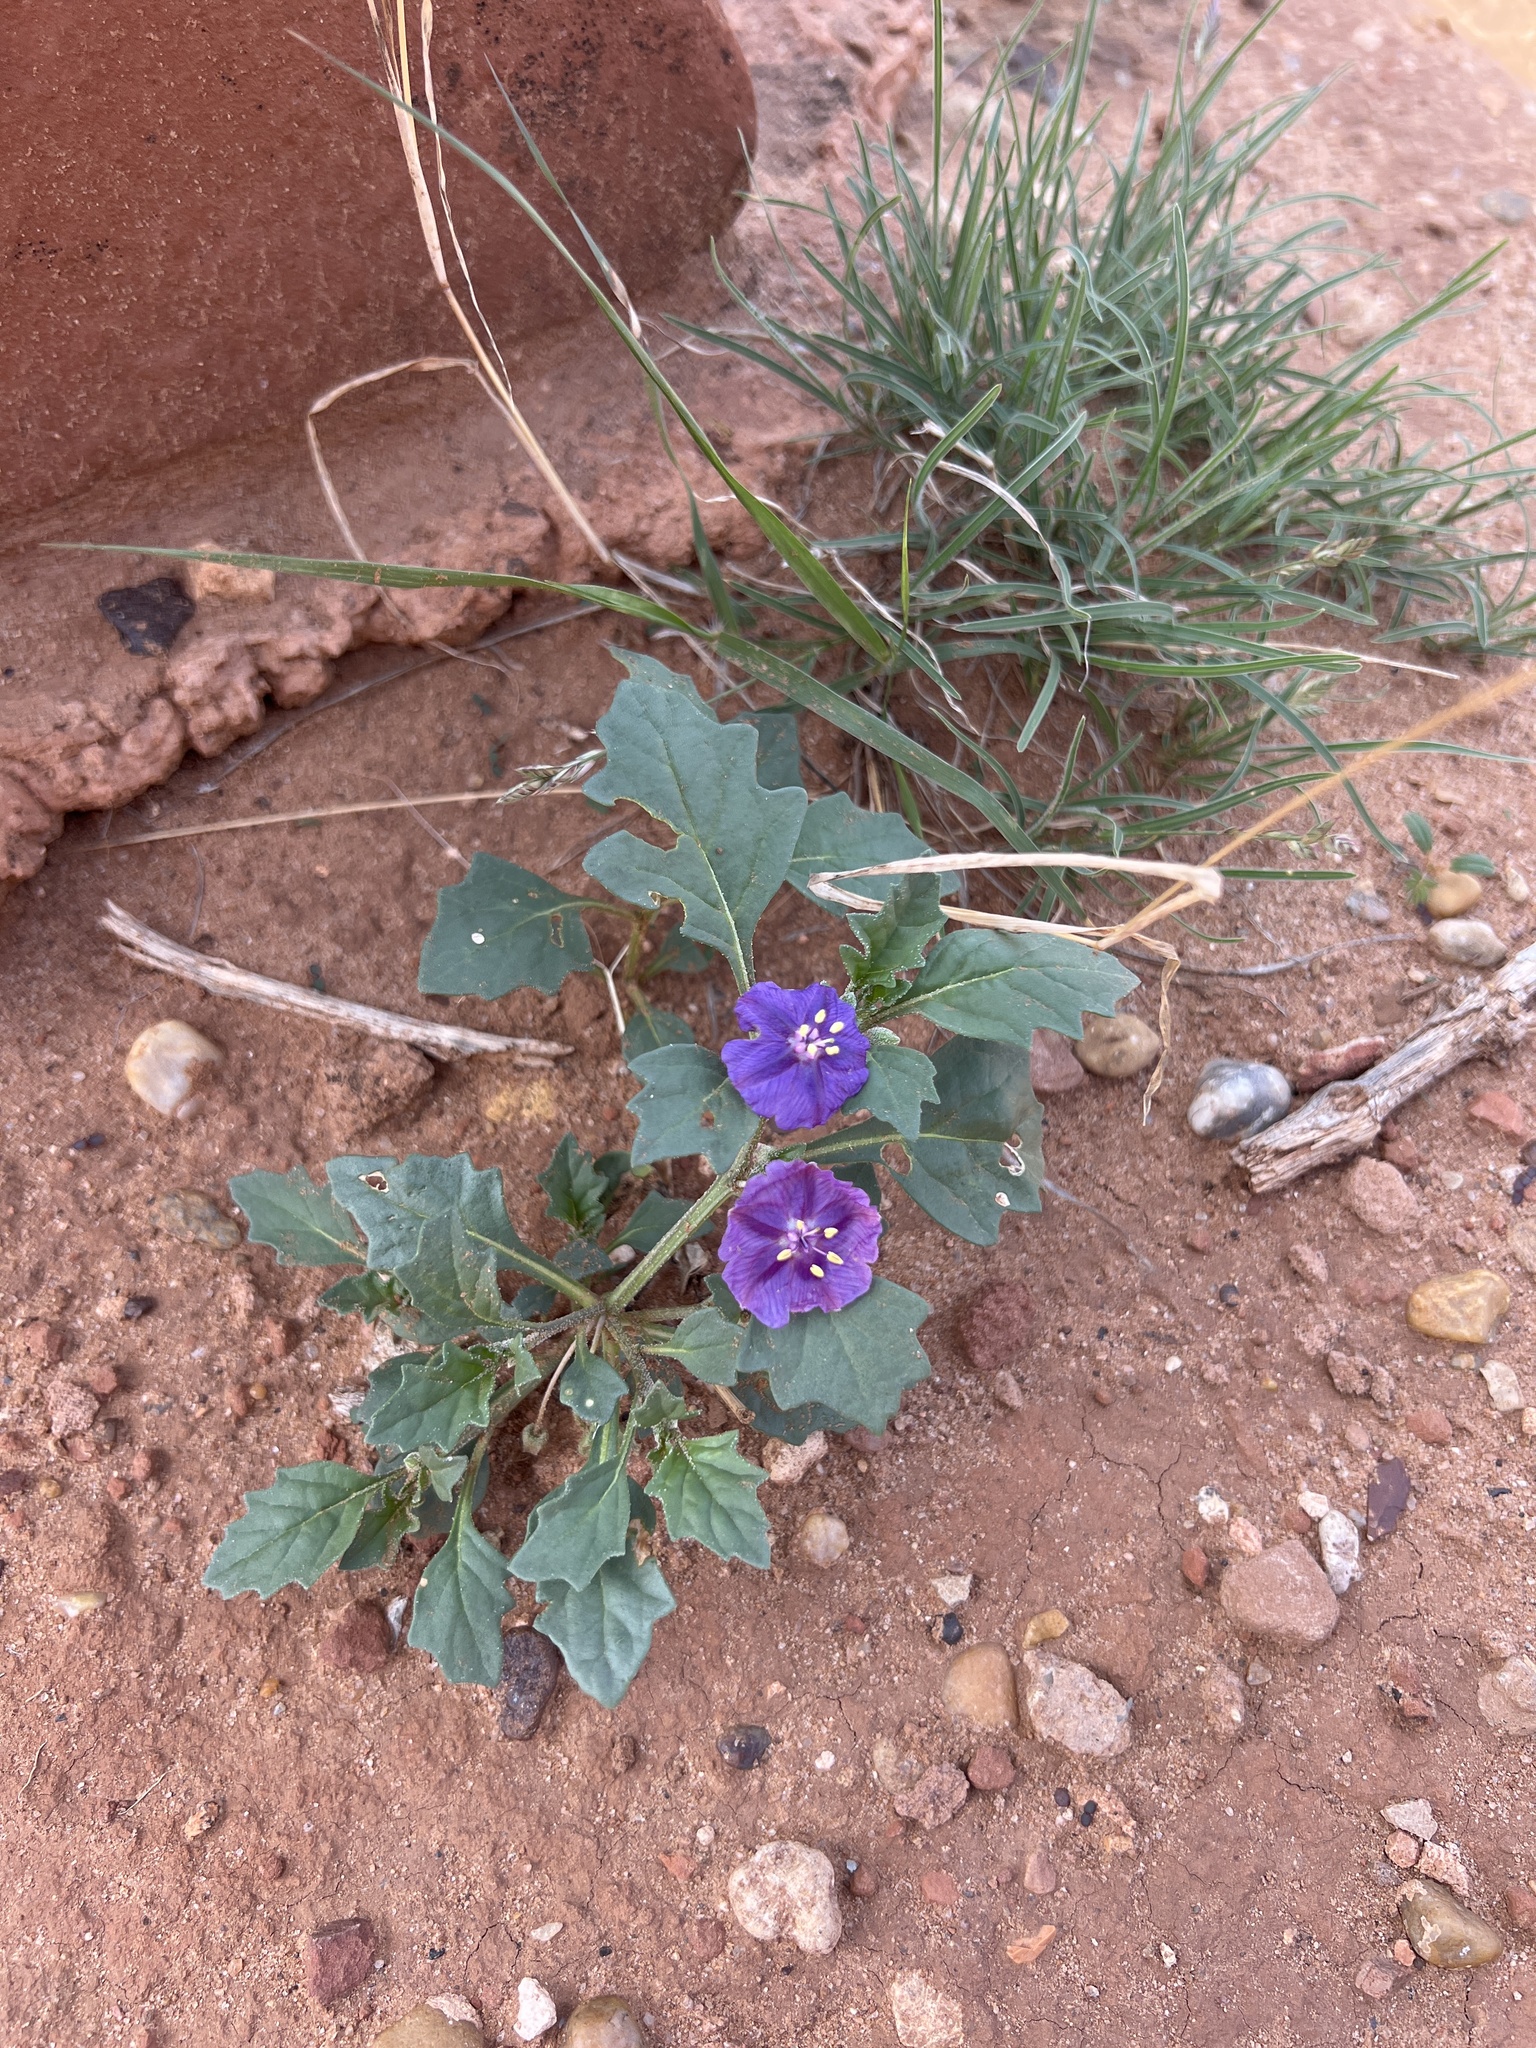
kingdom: Plantae
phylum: Tracheophyta
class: Magnoliopsida
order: Solanales
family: Solanaceae
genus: Quincula
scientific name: Quincula lobata
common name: Purple-ground-cherry
